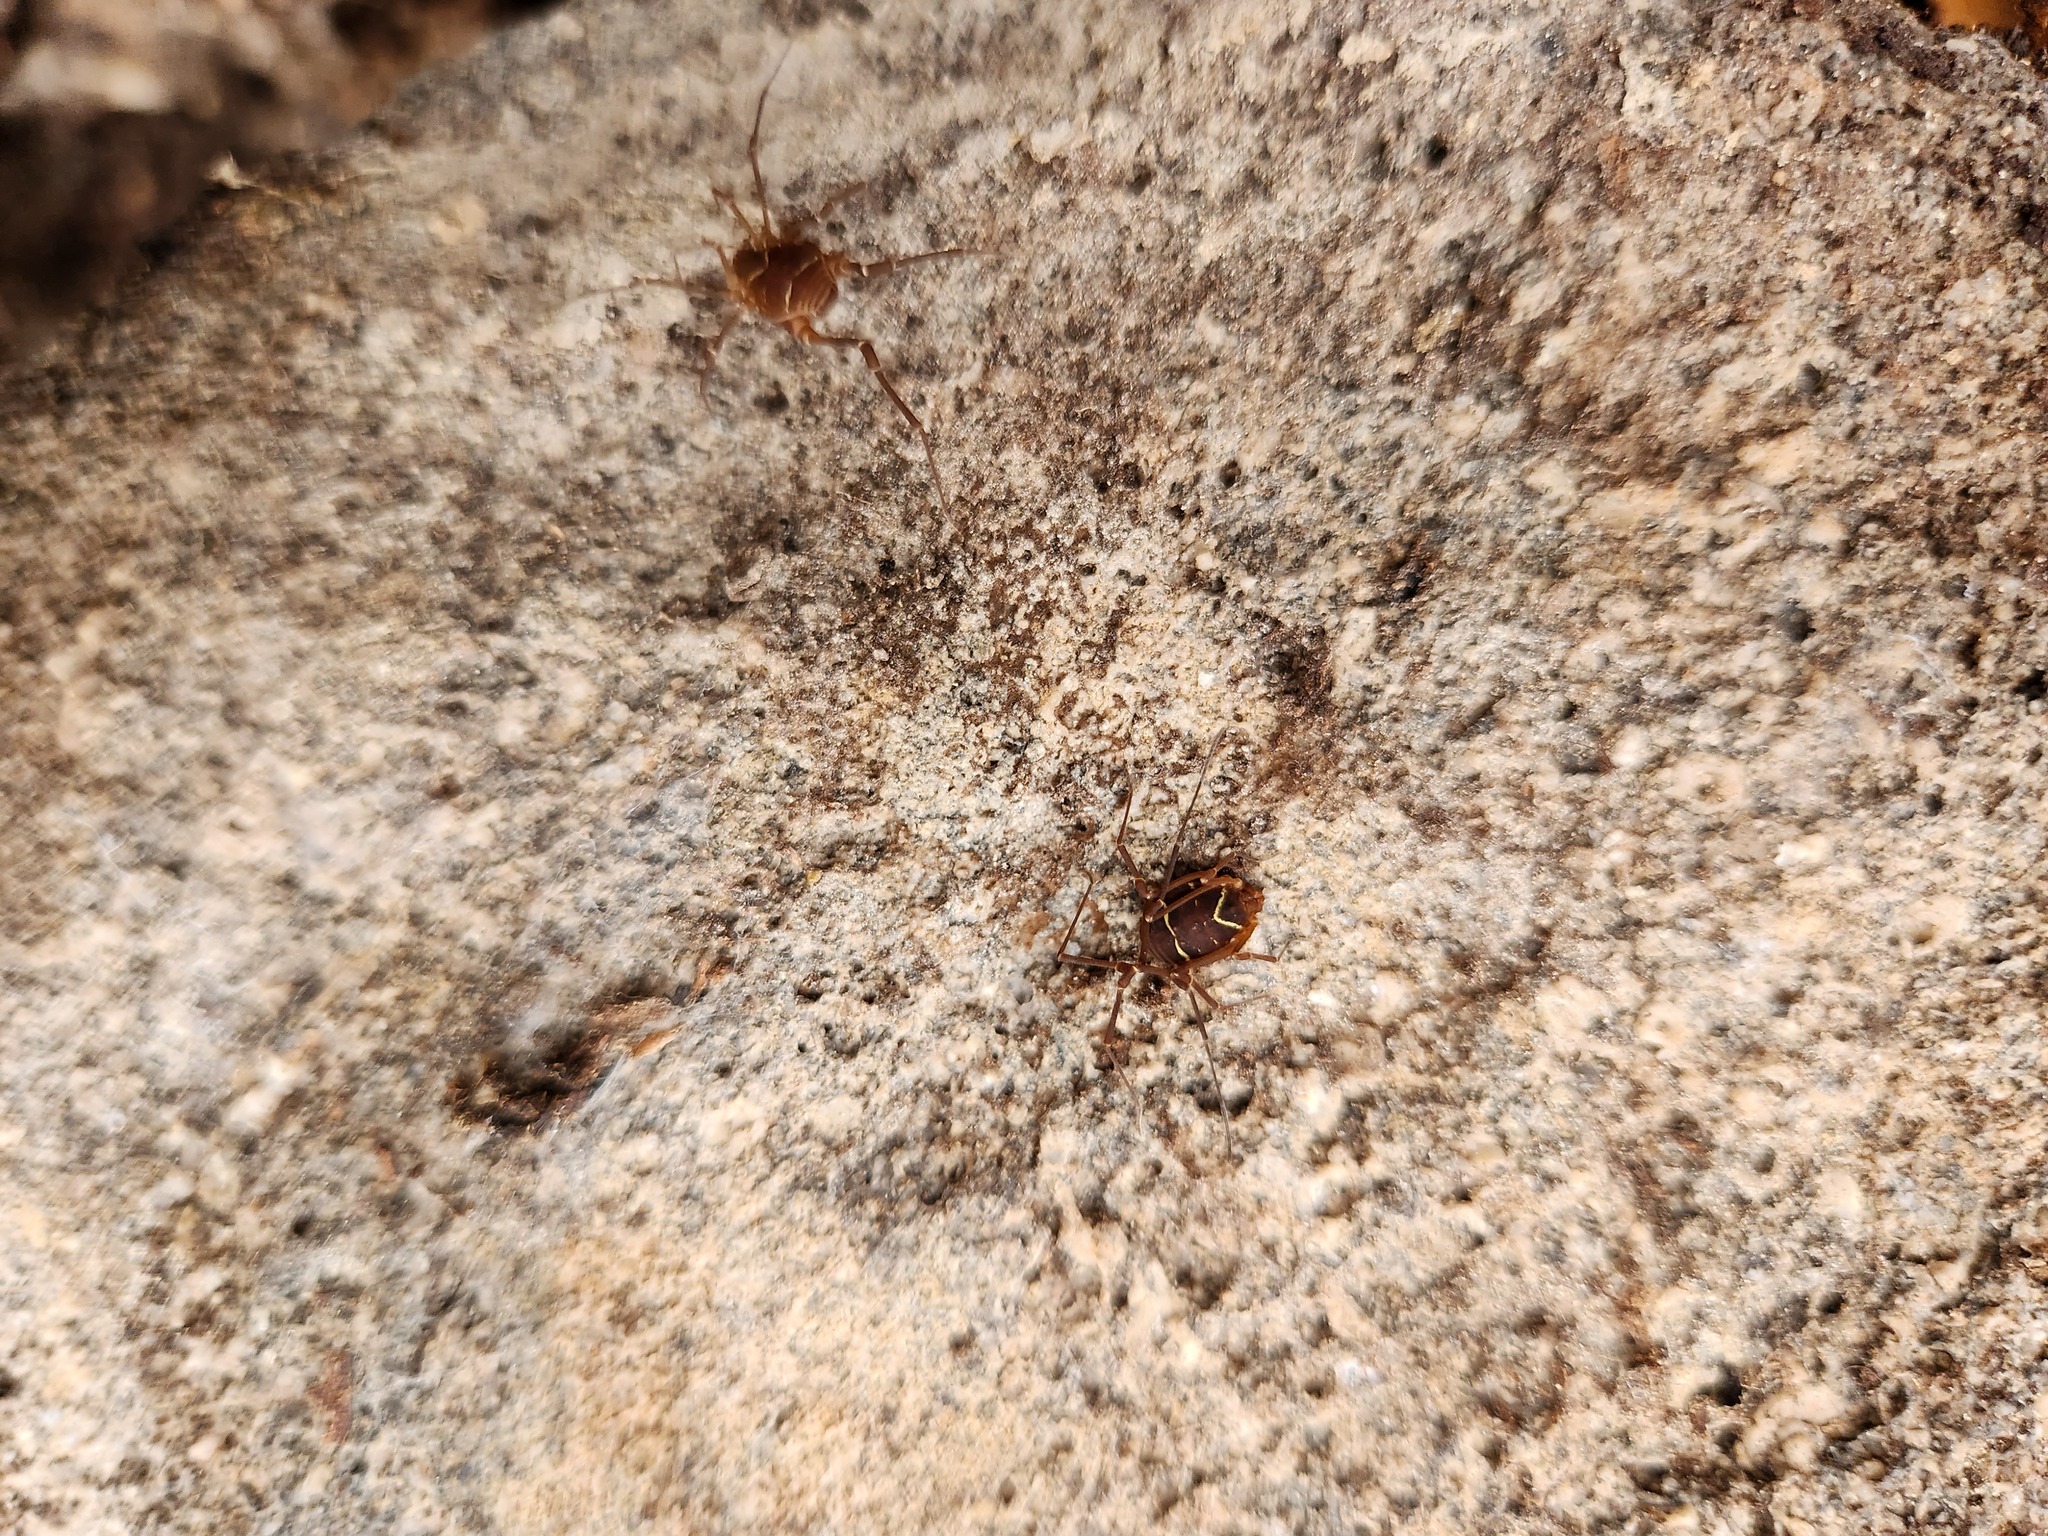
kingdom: Animalia
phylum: Arthropoda
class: Arachnida
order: Opiliones
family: Cosmetidae
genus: Libitioides
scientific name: Libitioides sayi
